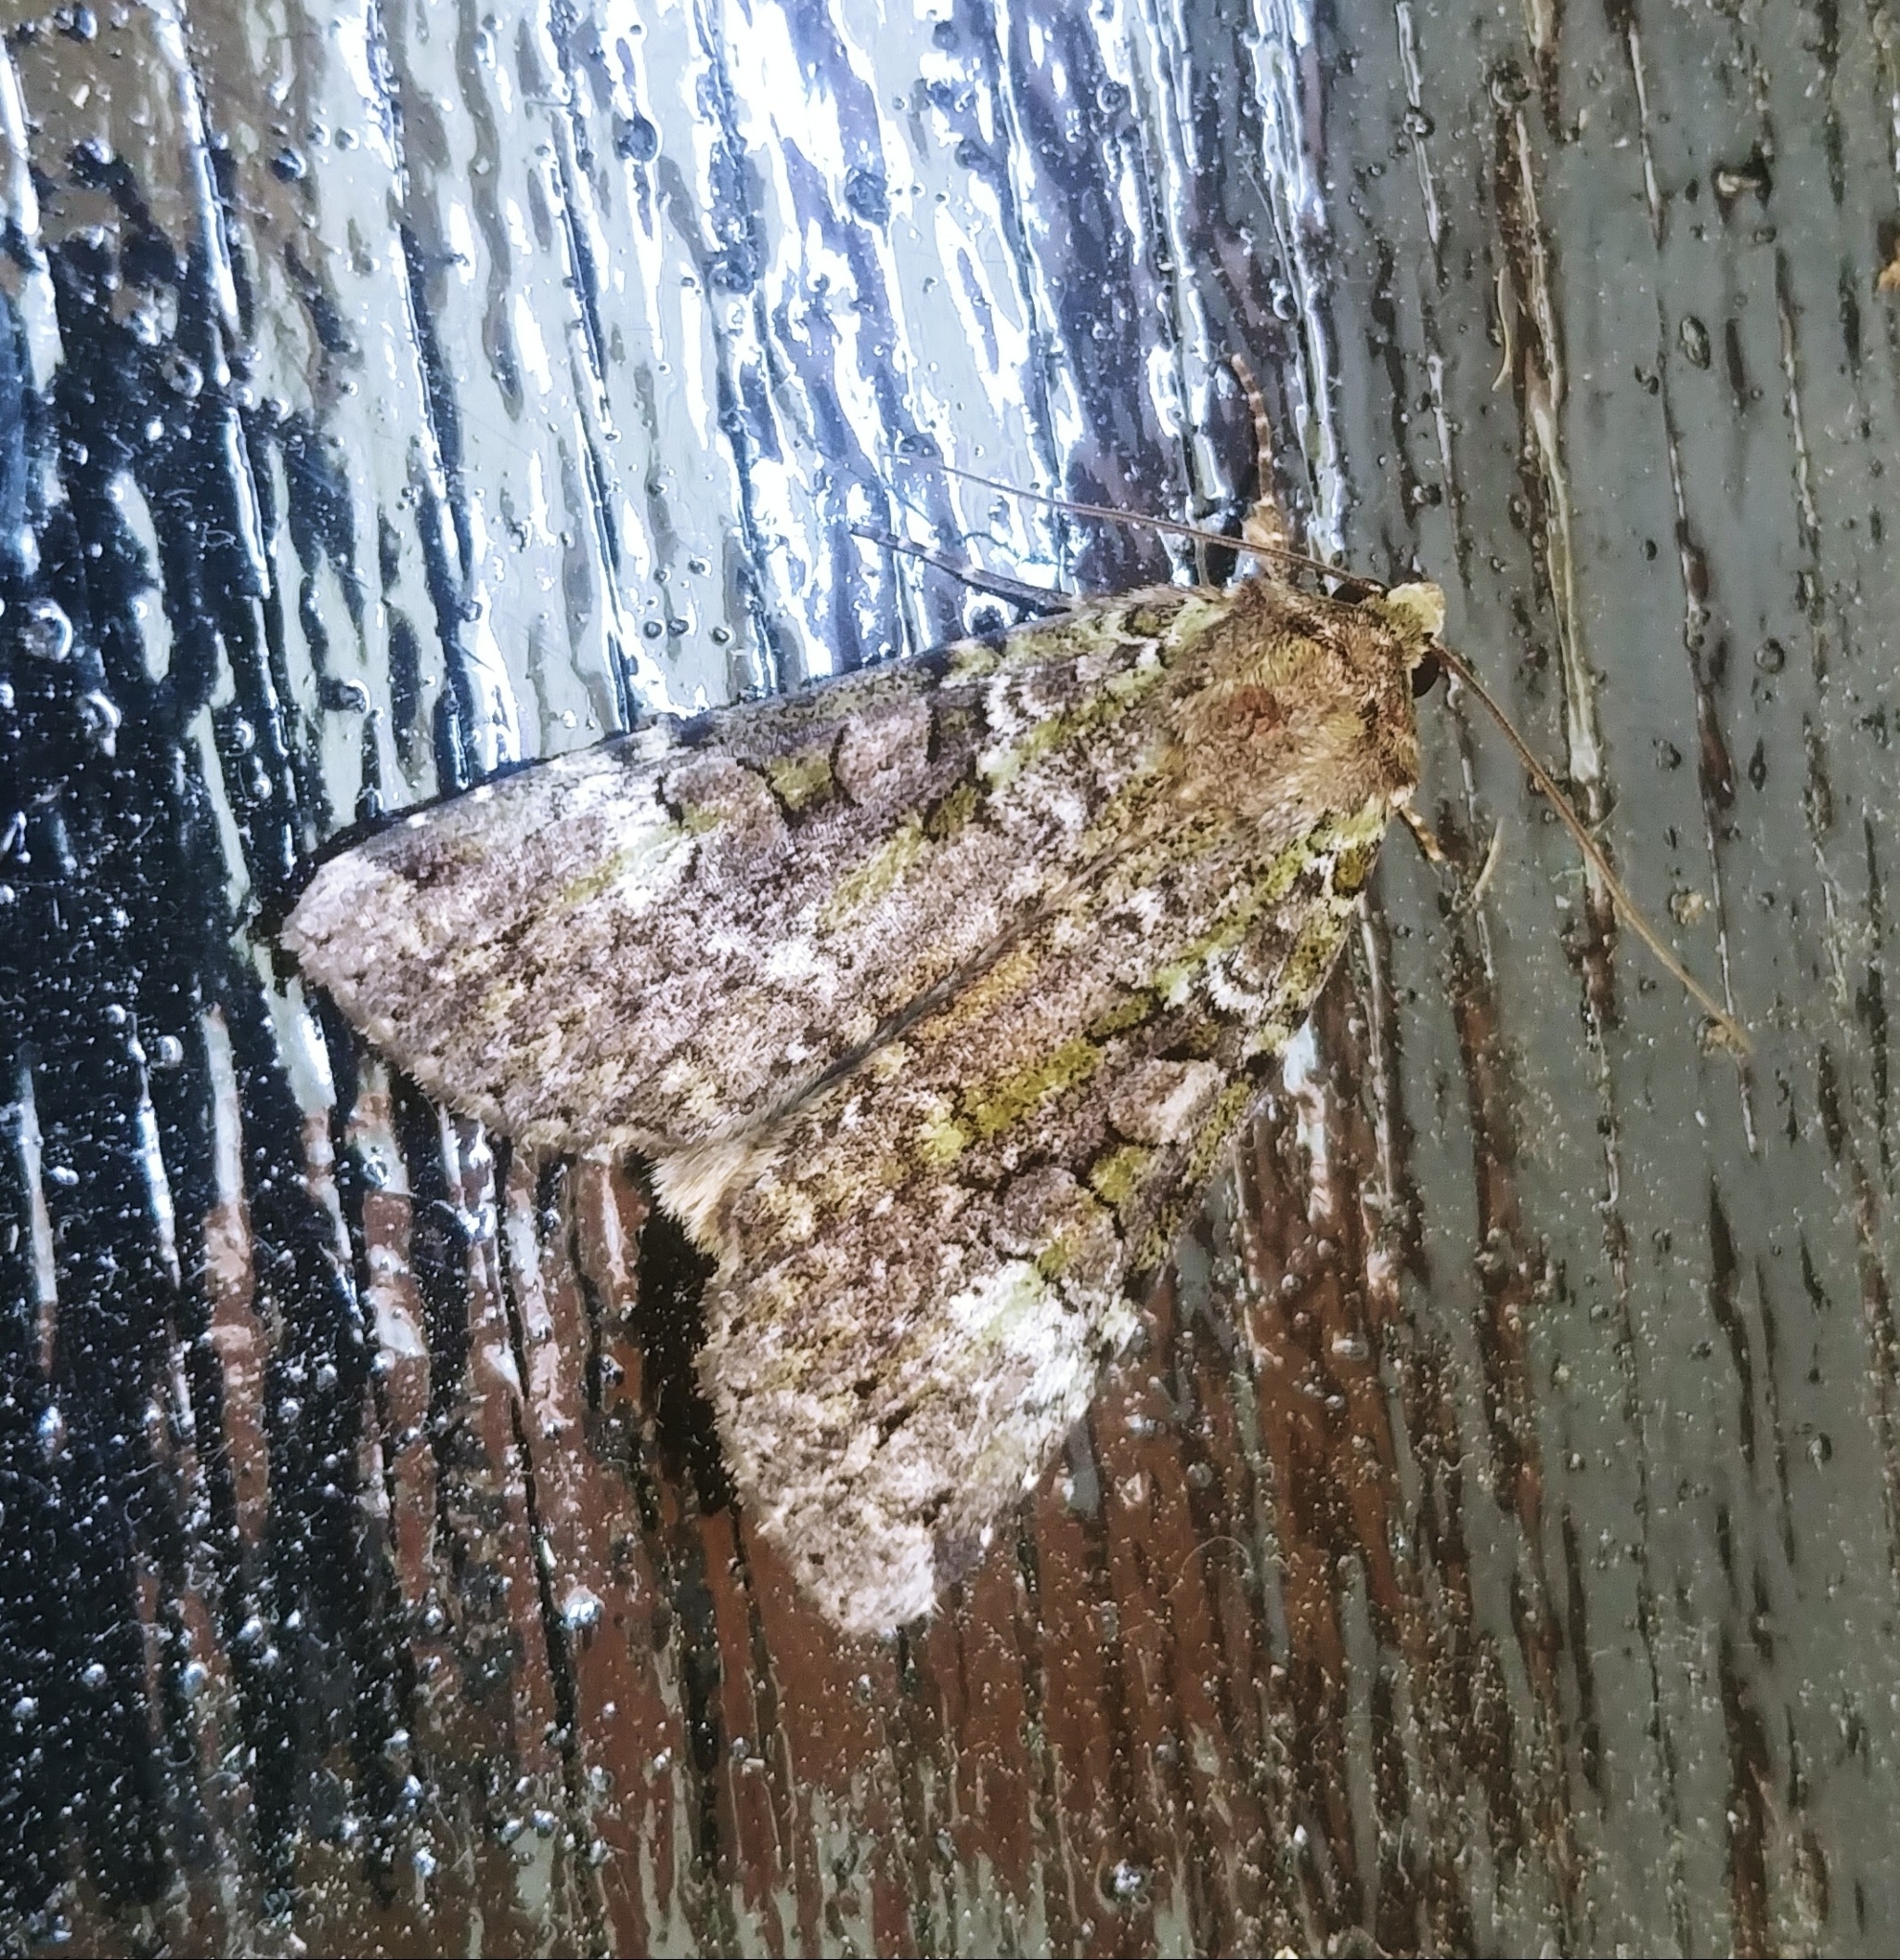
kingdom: Animalia
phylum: Arthropoda
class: Insecta
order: Lepidoptera
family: Noctuidae
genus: Anaplectoides
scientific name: Anaplectoides prasina
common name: Green arches
